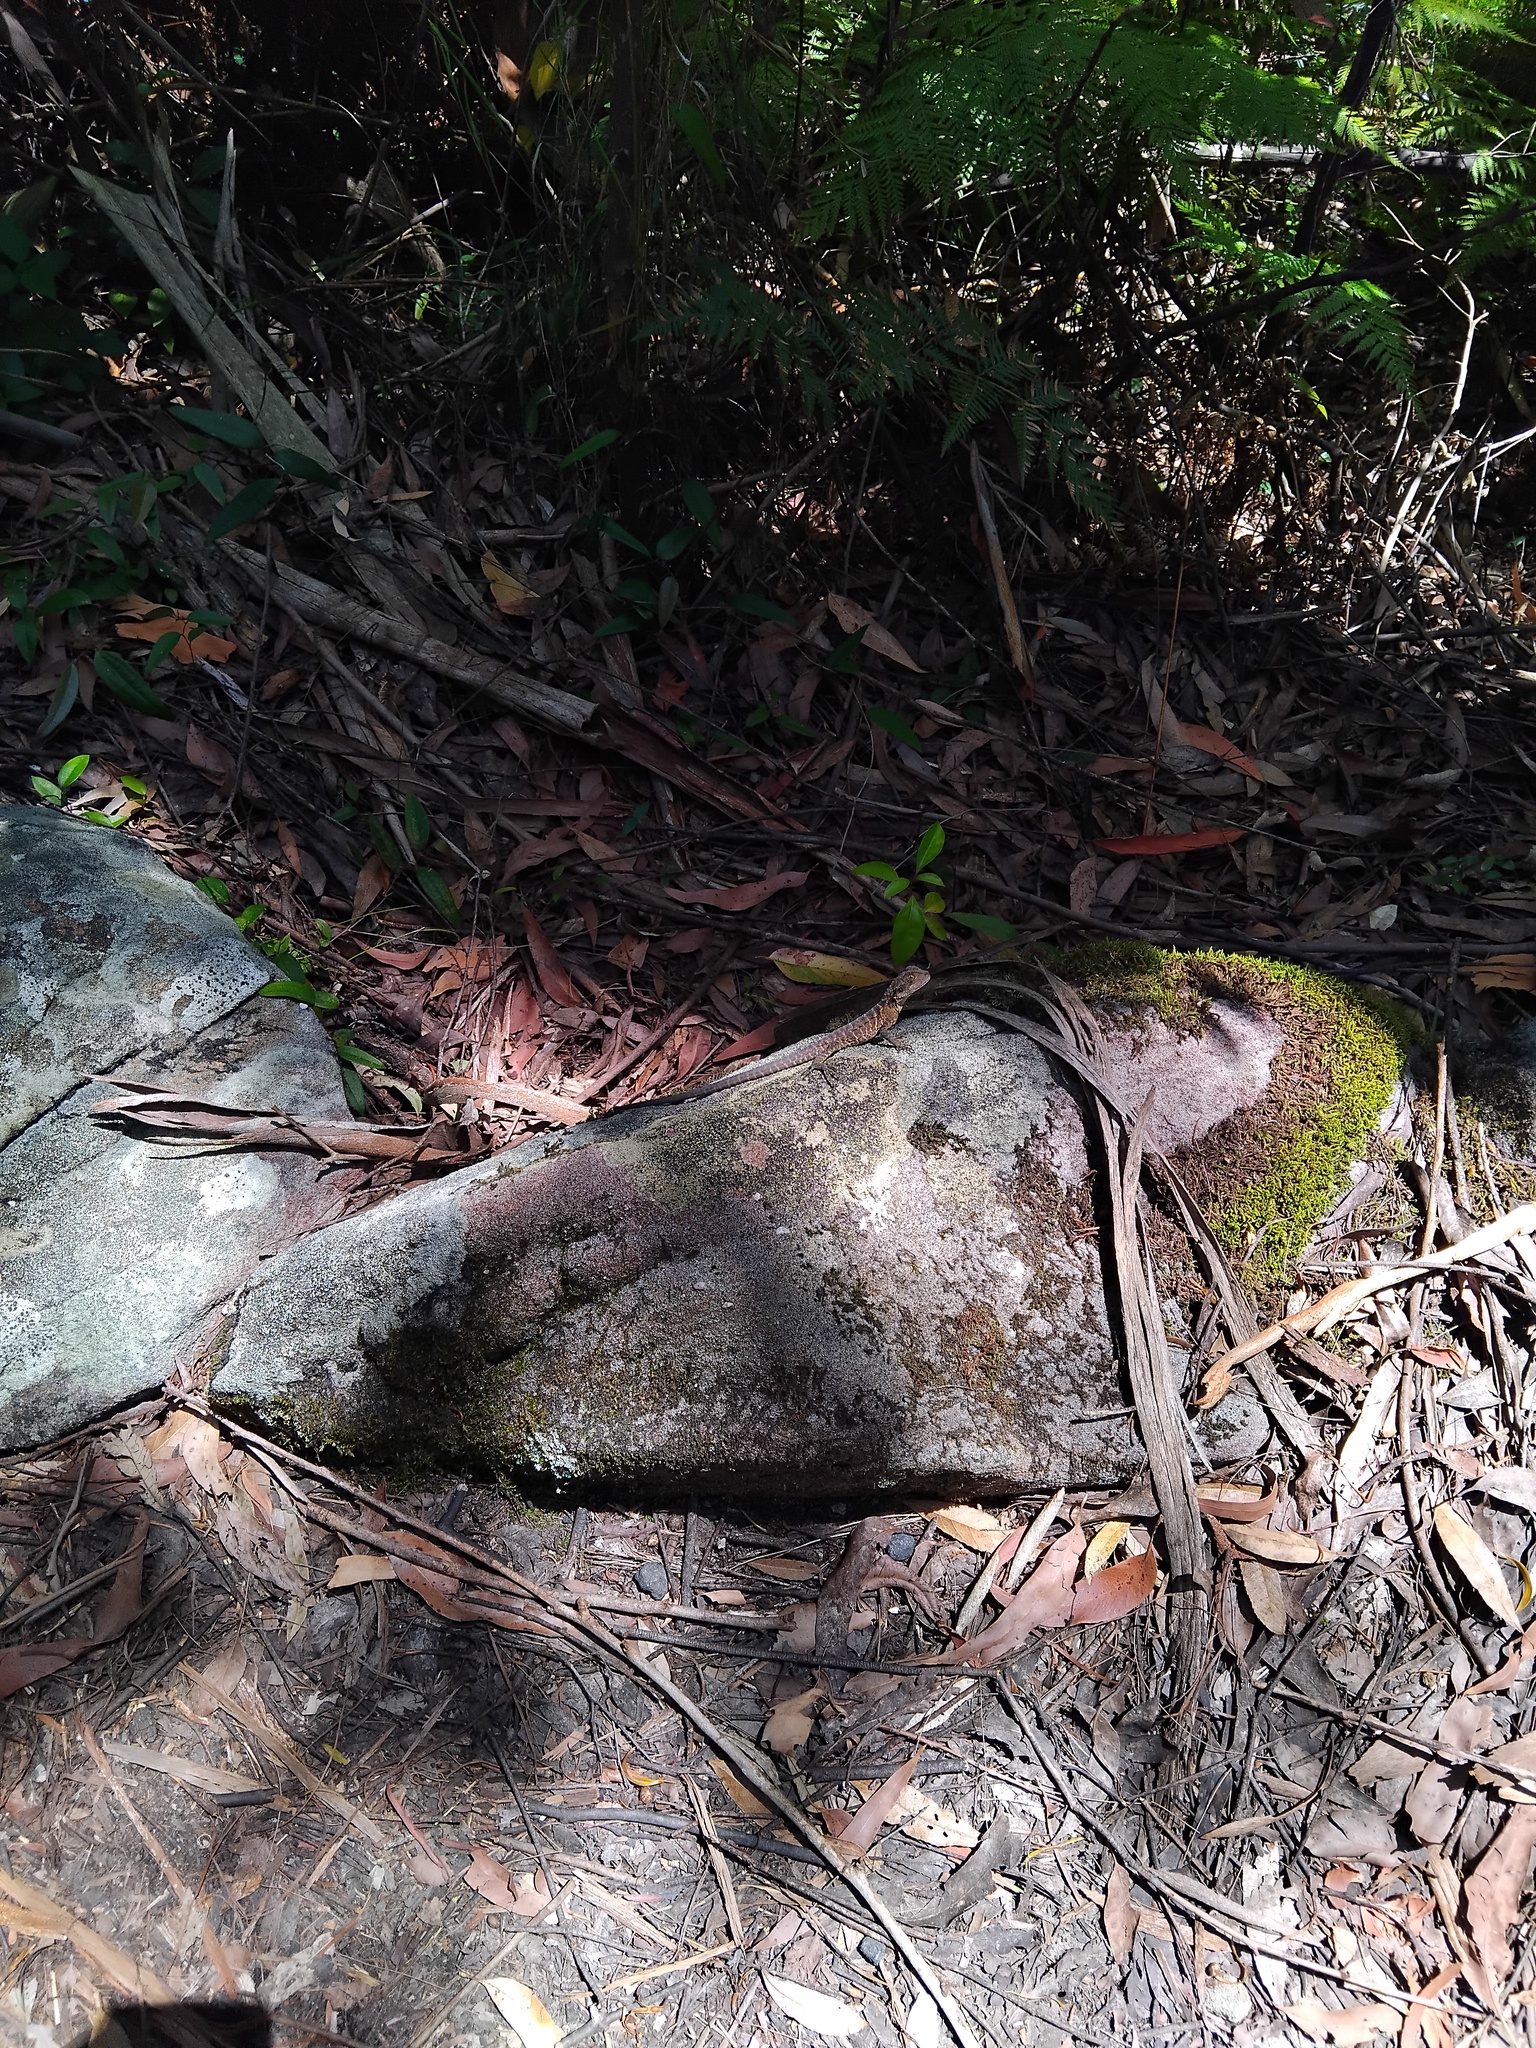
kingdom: Animalia
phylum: Chordata
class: Squamata
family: Agamidae
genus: Intellagama
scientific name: Intellagama lesueurii
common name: Eastern water dragon
